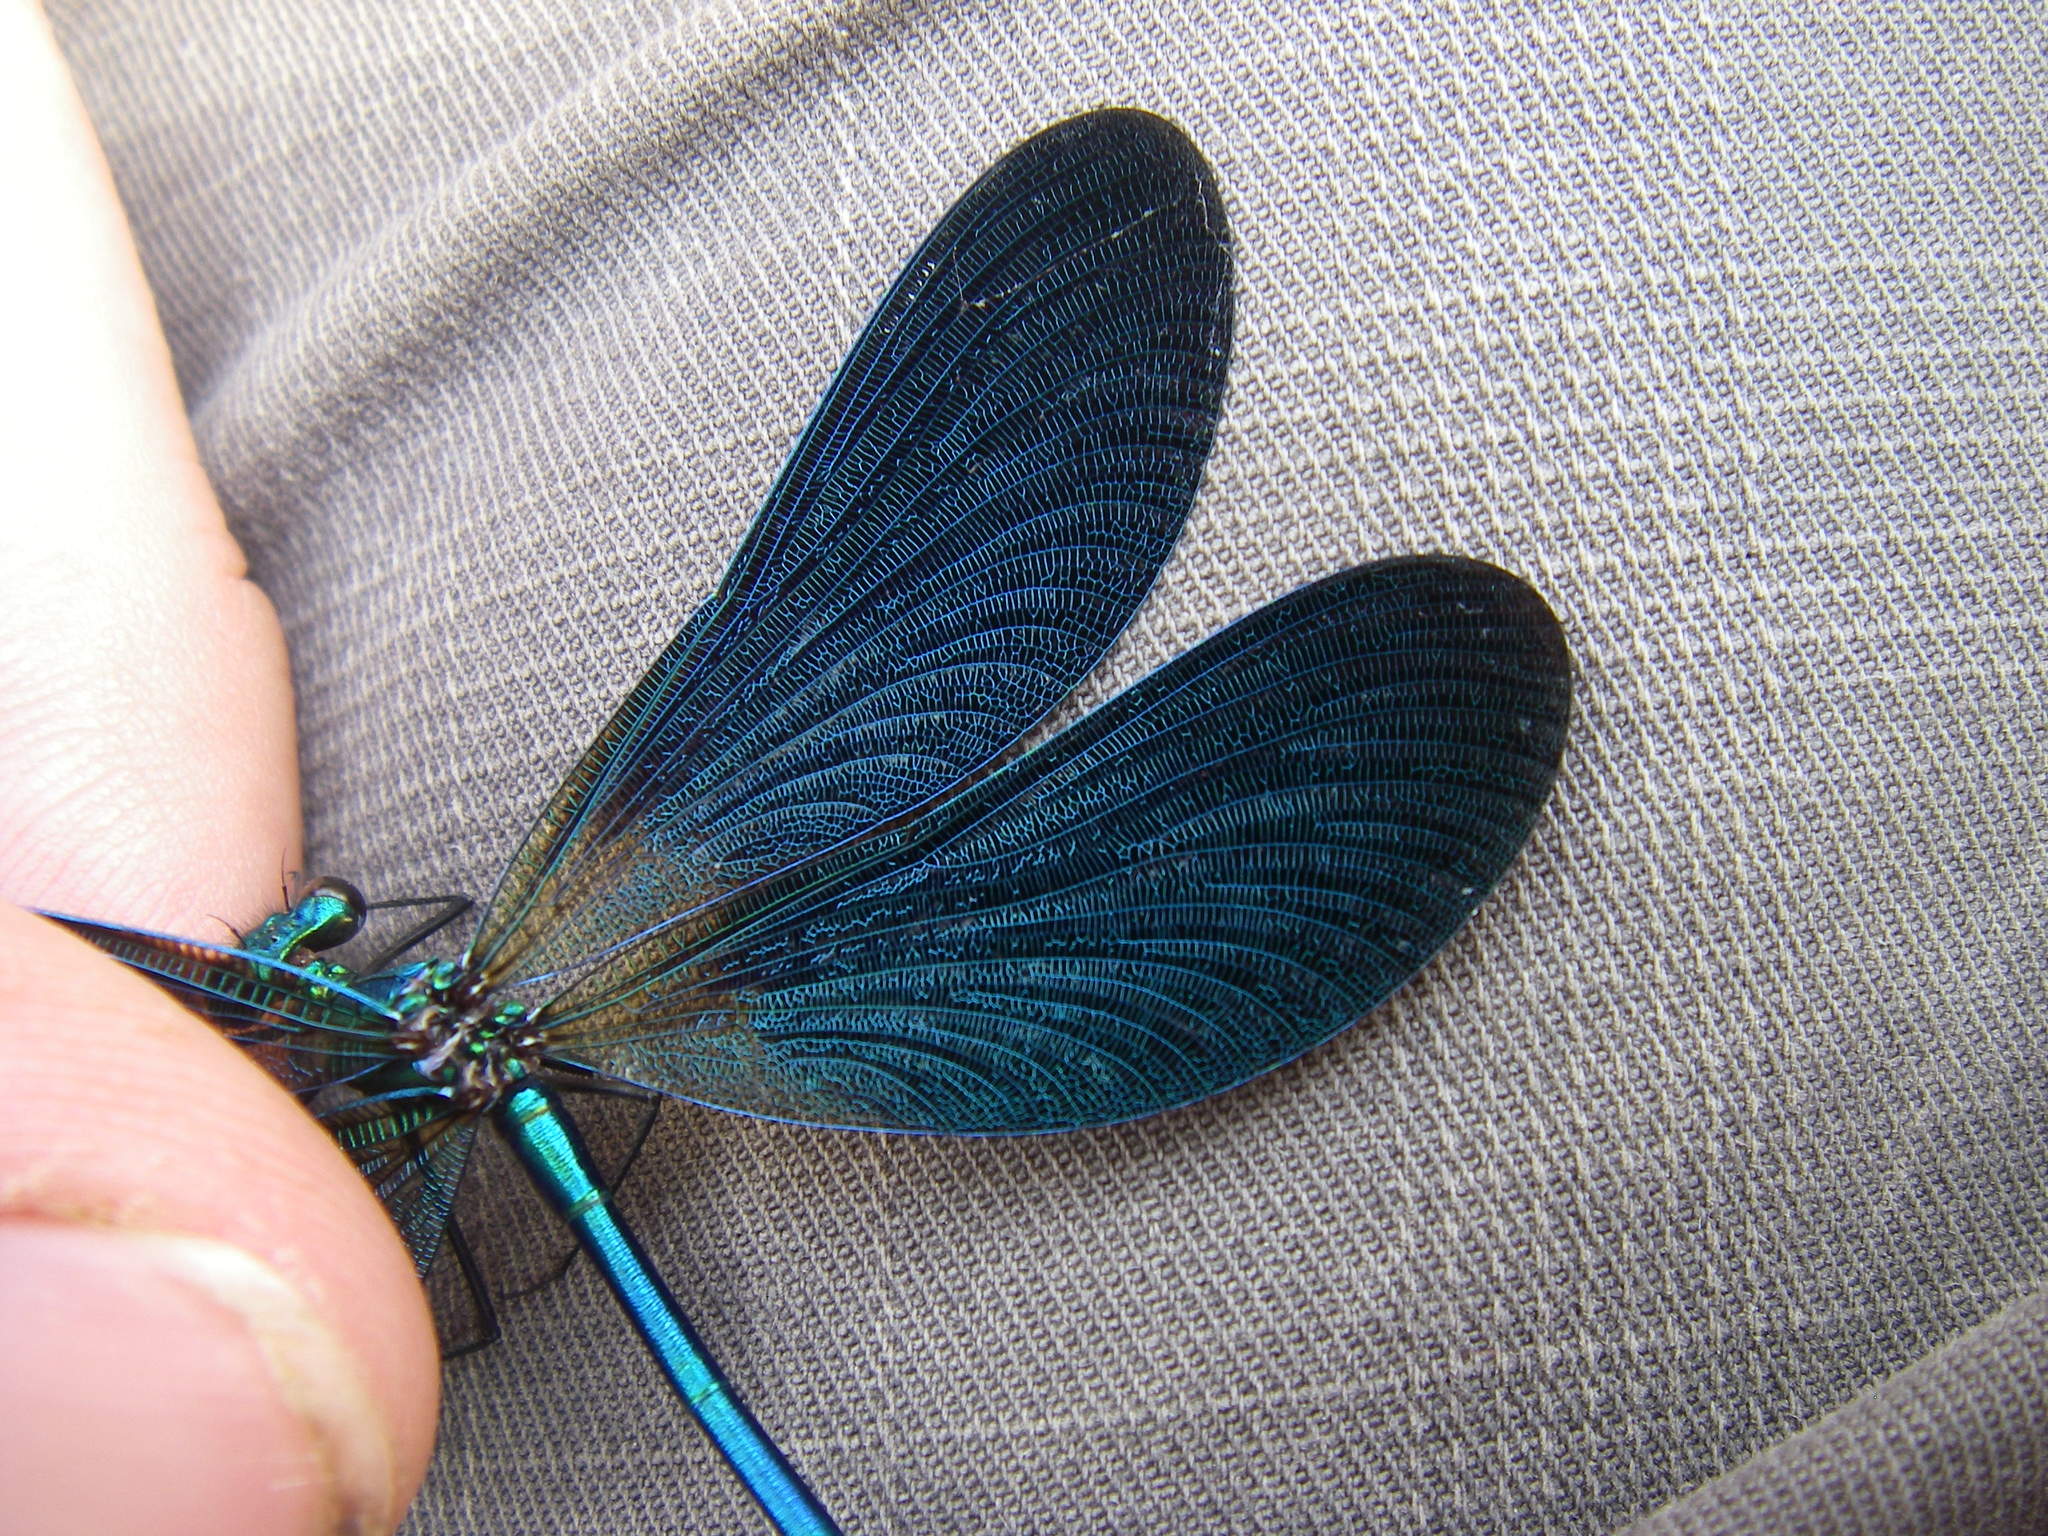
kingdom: Animalia
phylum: Arthropoda
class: Insecta
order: Odonata
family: Calopterygidae
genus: Calopteryx
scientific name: Calopteryx virgo
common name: Beautiful demoiselle
